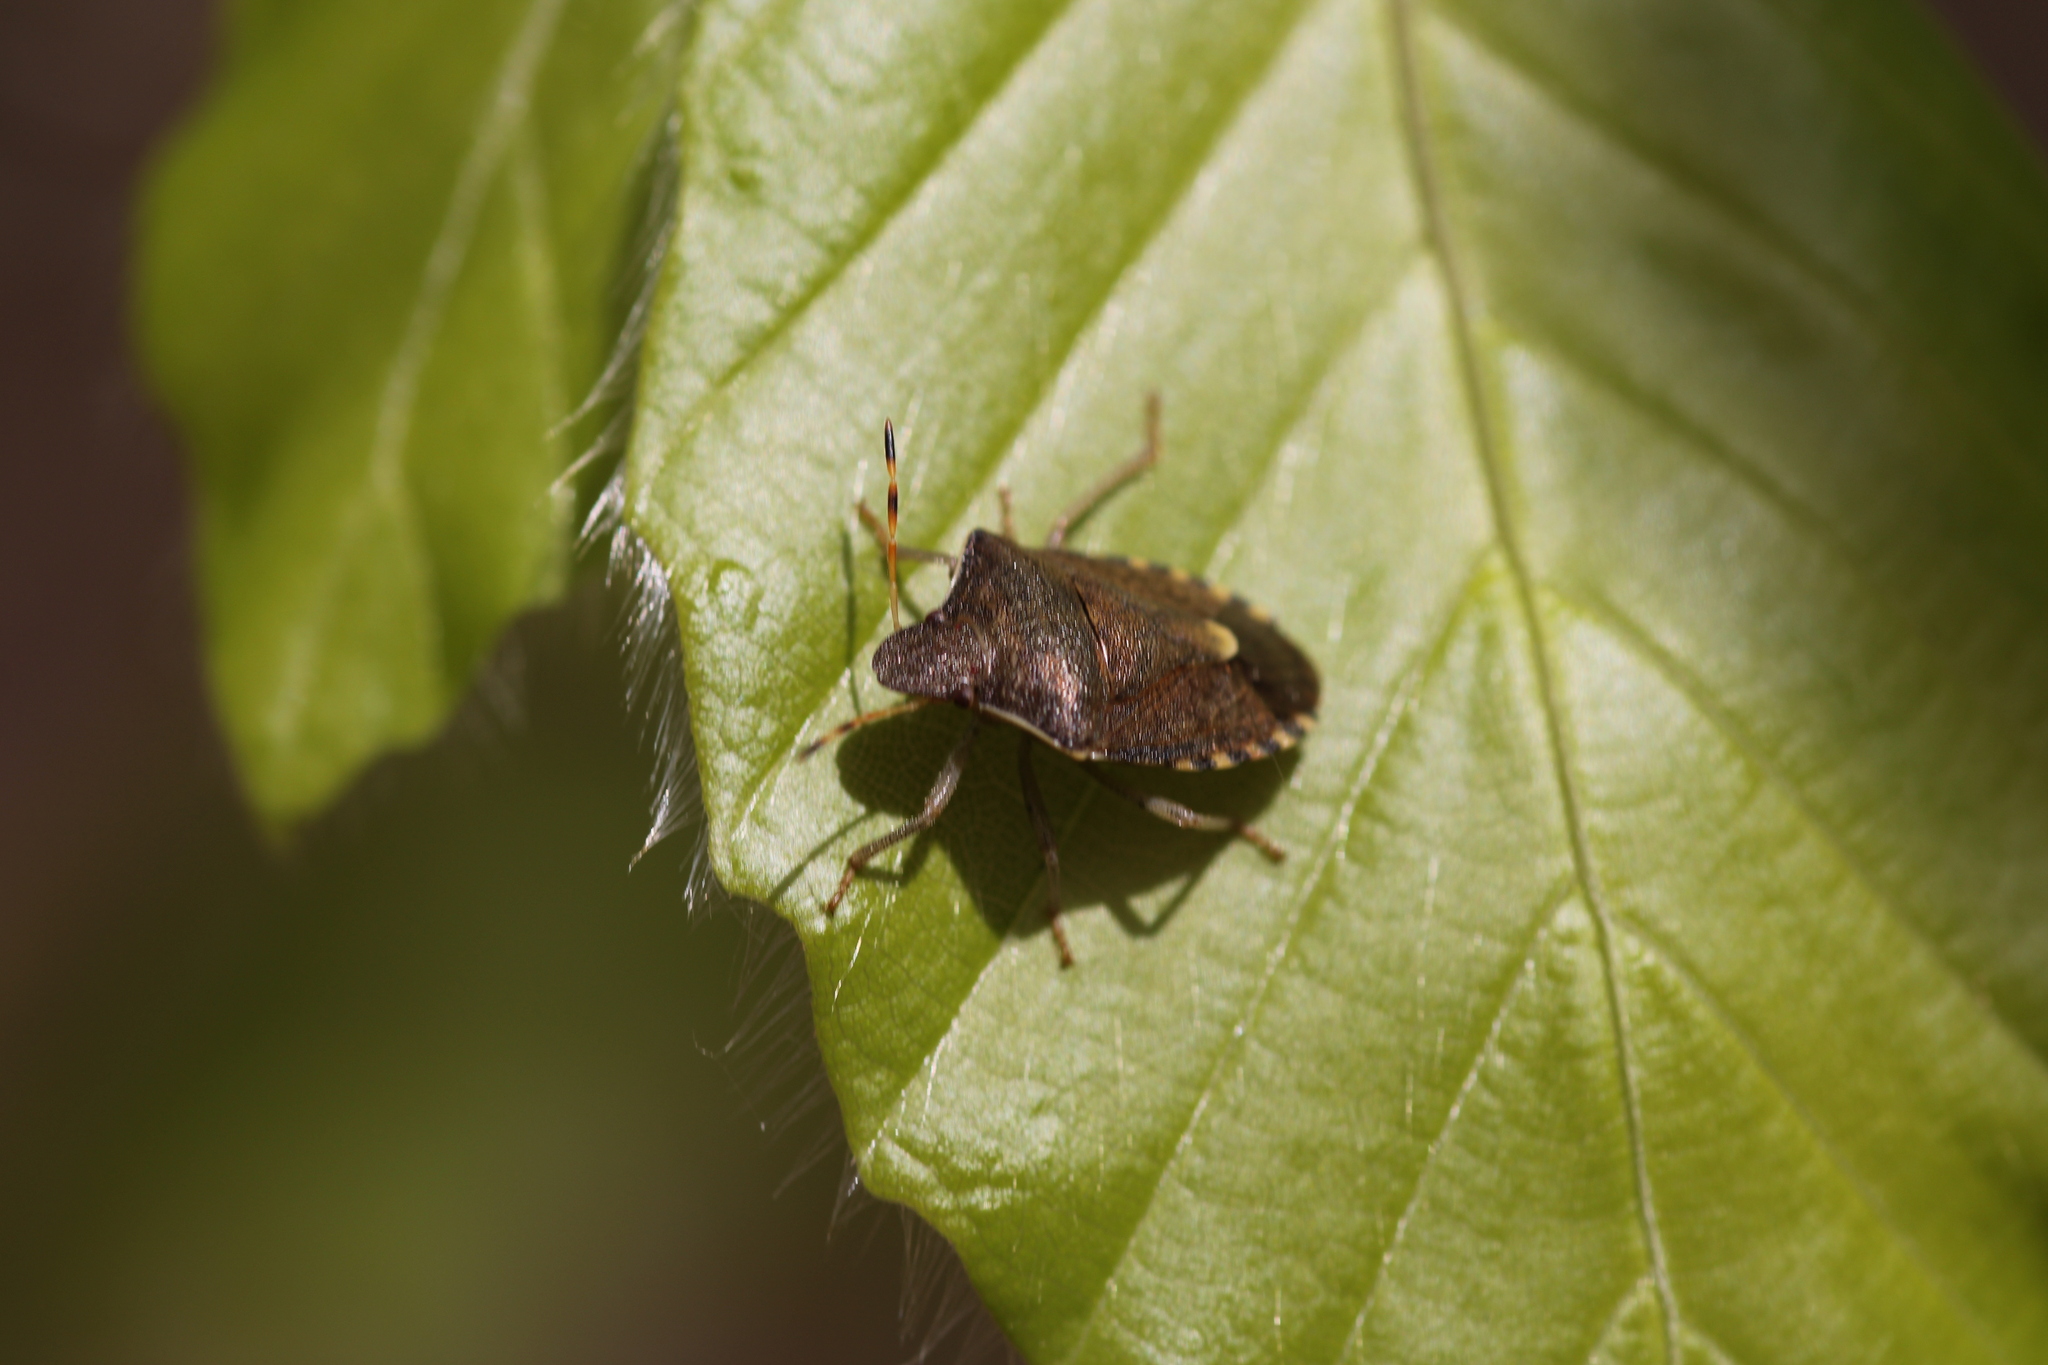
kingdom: Animalia
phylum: Arthropoda
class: Insecta
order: Hemiptera
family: Pentatomidae
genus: Holcostethus
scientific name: Holcostethus strictus
